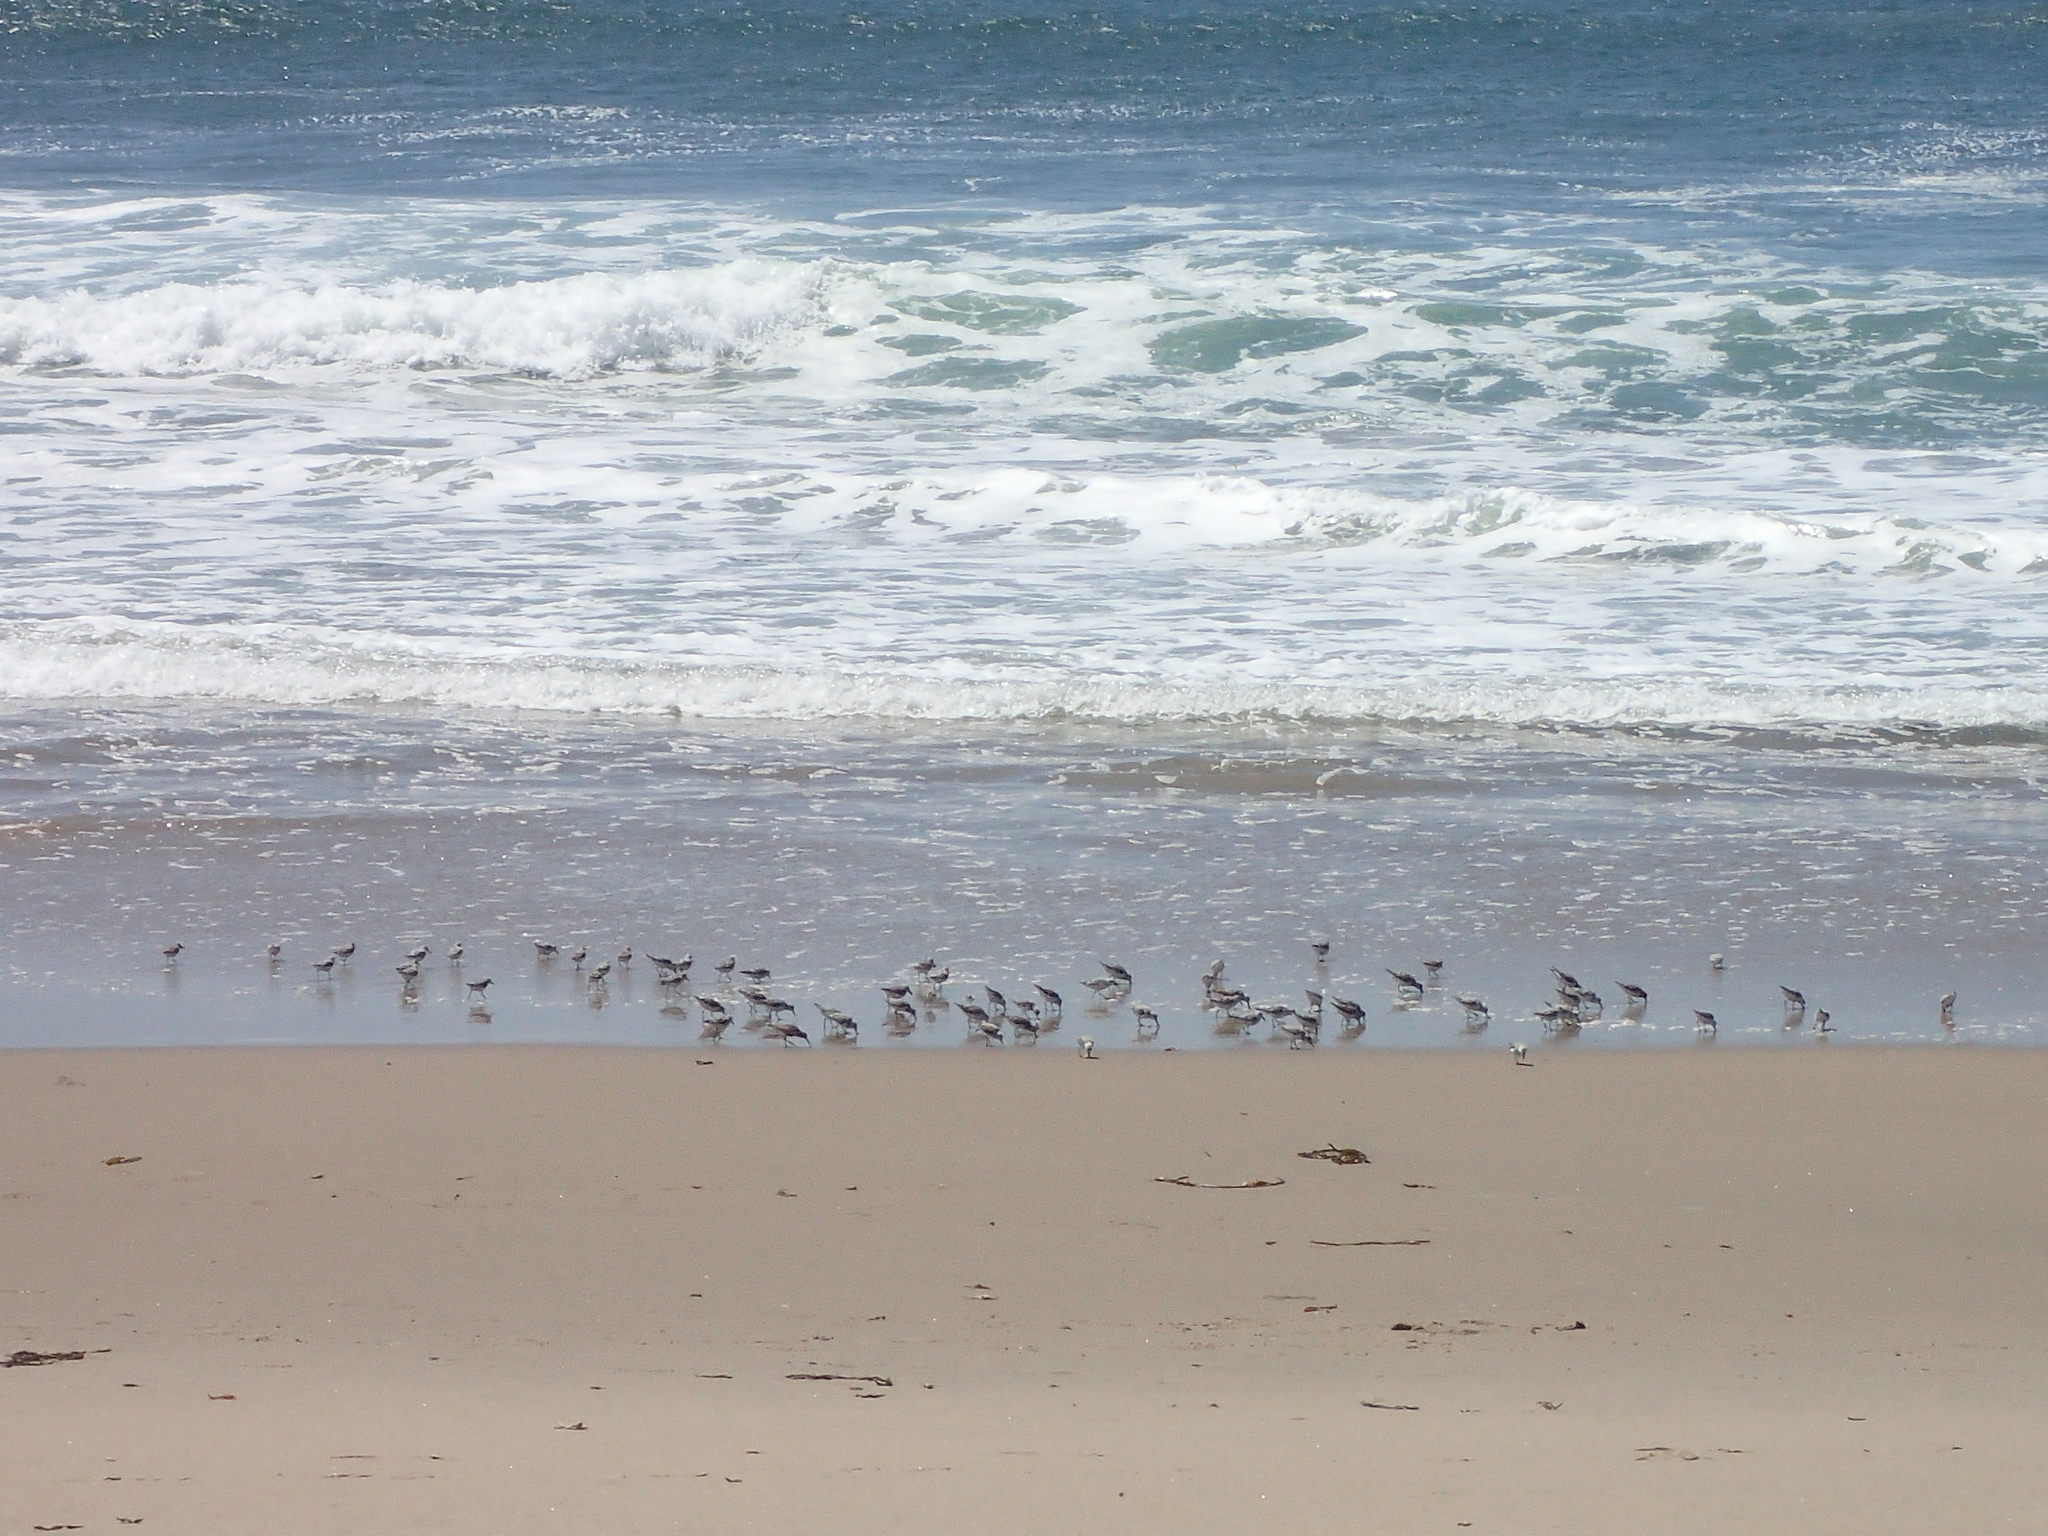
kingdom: Animalia
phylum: Chordata
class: Aves
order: Charadriiformes
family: Scolopacidae
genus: Calidris
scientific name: Calidris alba
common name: Sanderling
